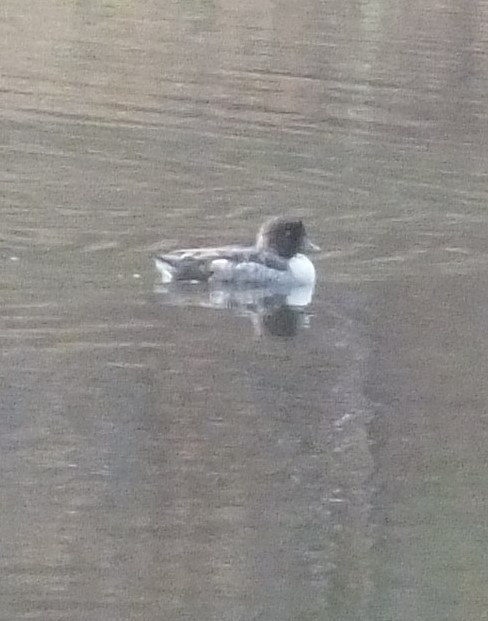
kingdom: Animalia
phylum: Chordata
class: Aves
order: Anseriformes
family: Anatidae
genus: Bucephala
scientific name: Bucephala islandica
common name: Barrow's goldeneye
